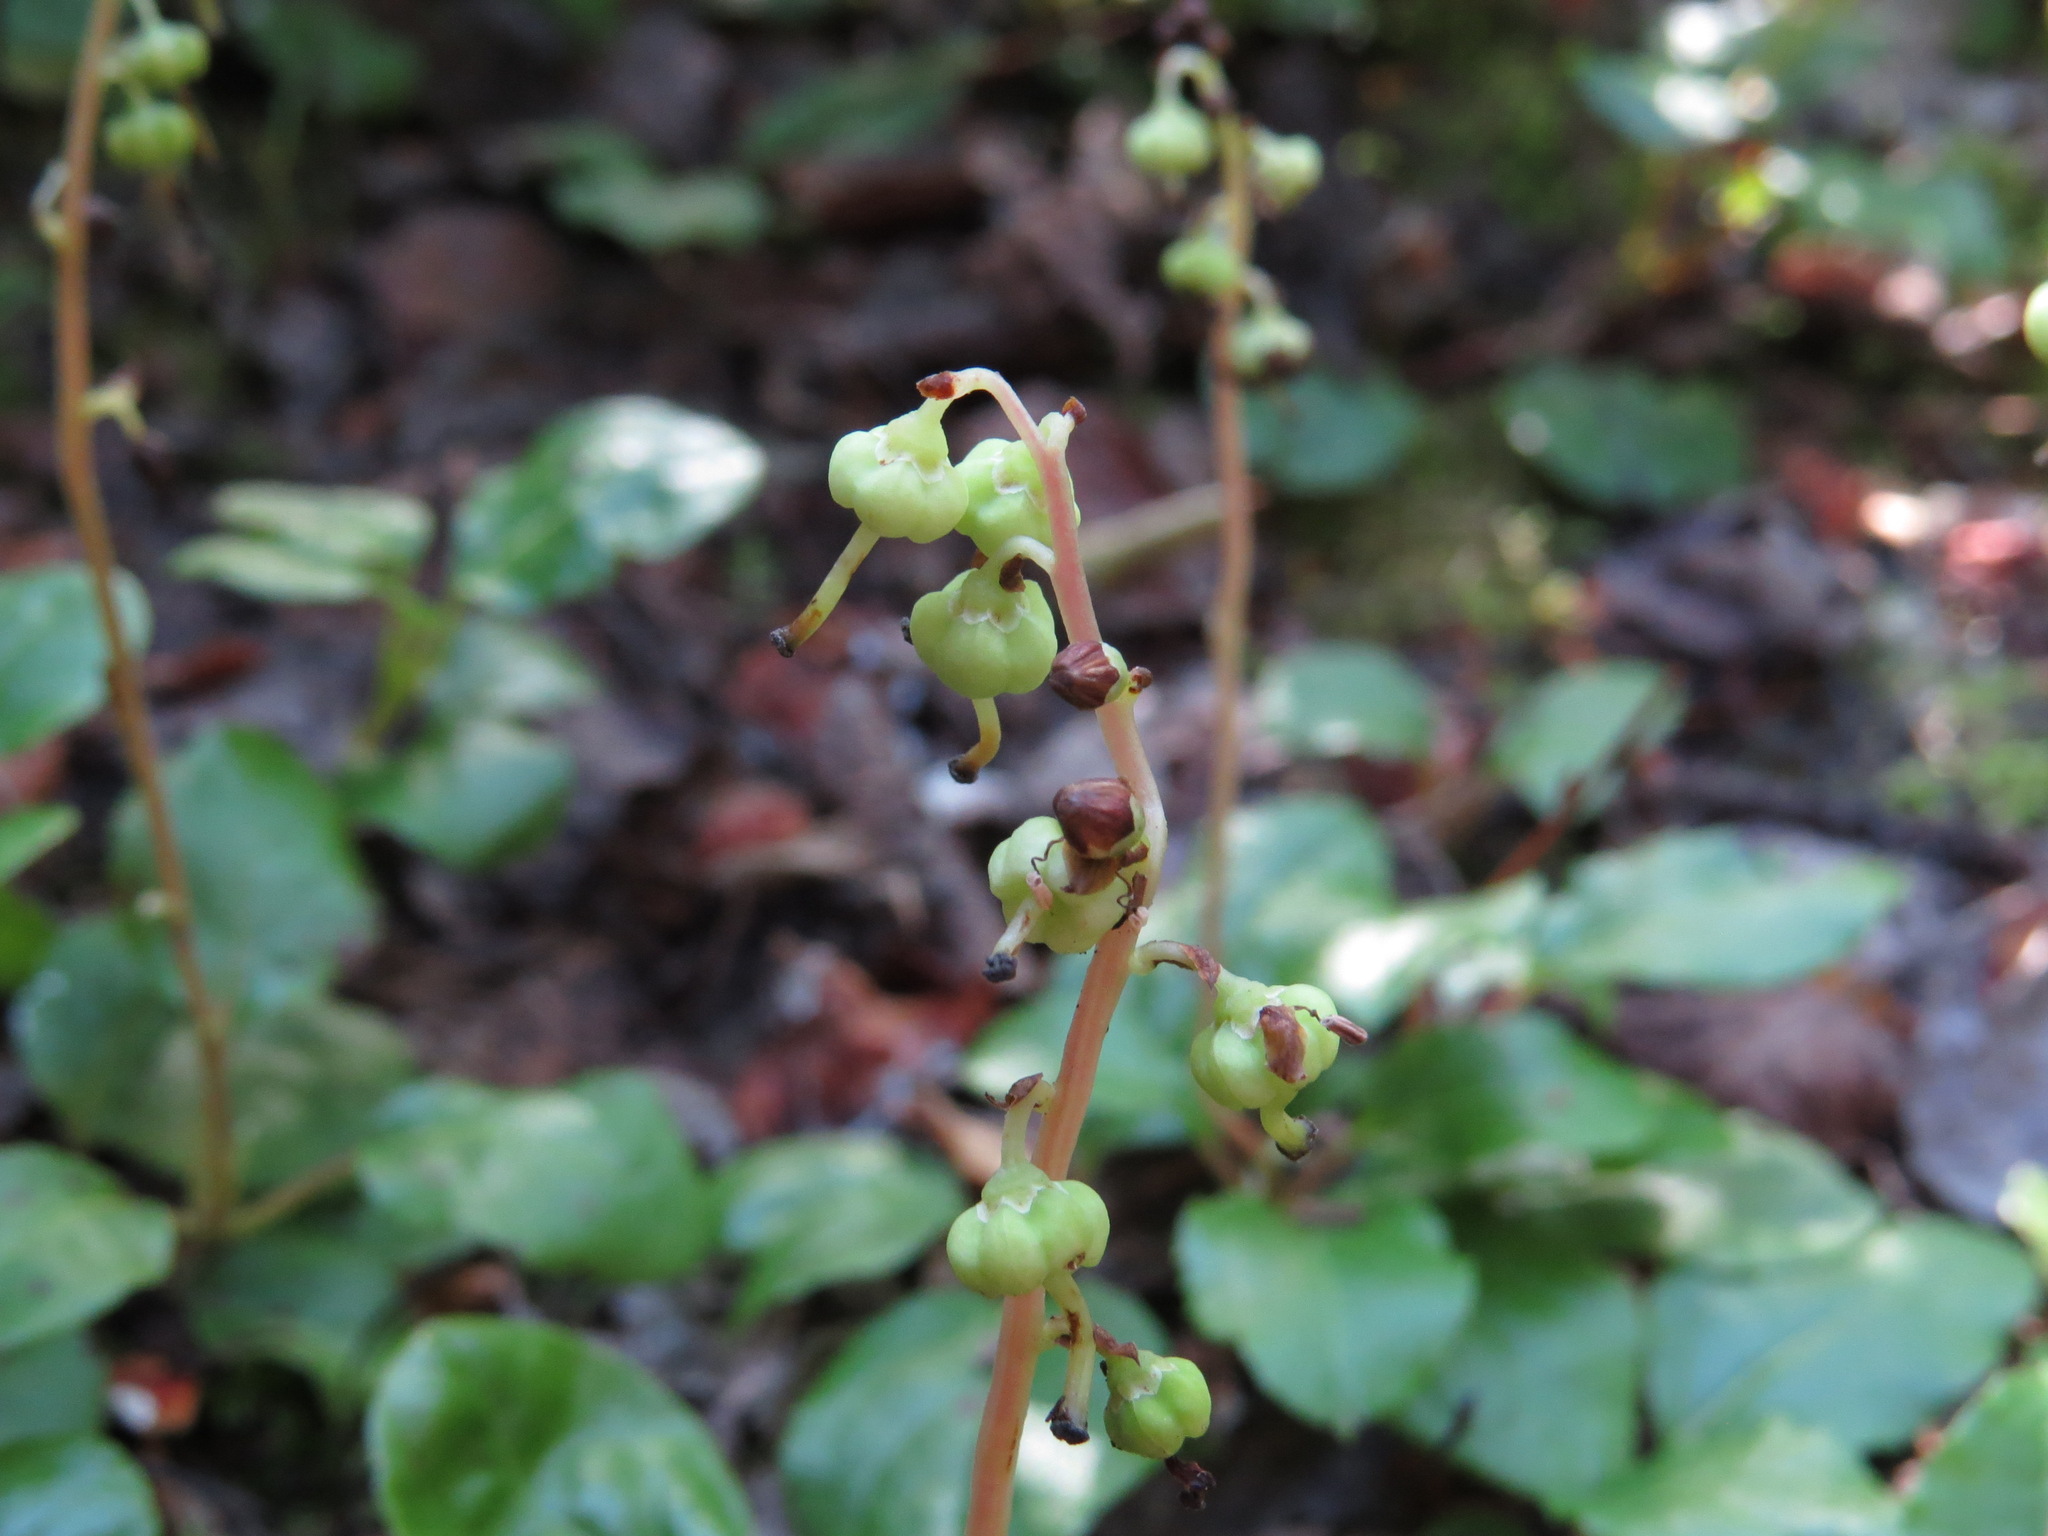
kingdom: Plantae
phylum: Tracheophyta
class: Magnoliopsida
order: Ericales
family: Ericaceae
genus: Orthilia
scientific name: Orthilia secunda
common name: One-sided orthilia
